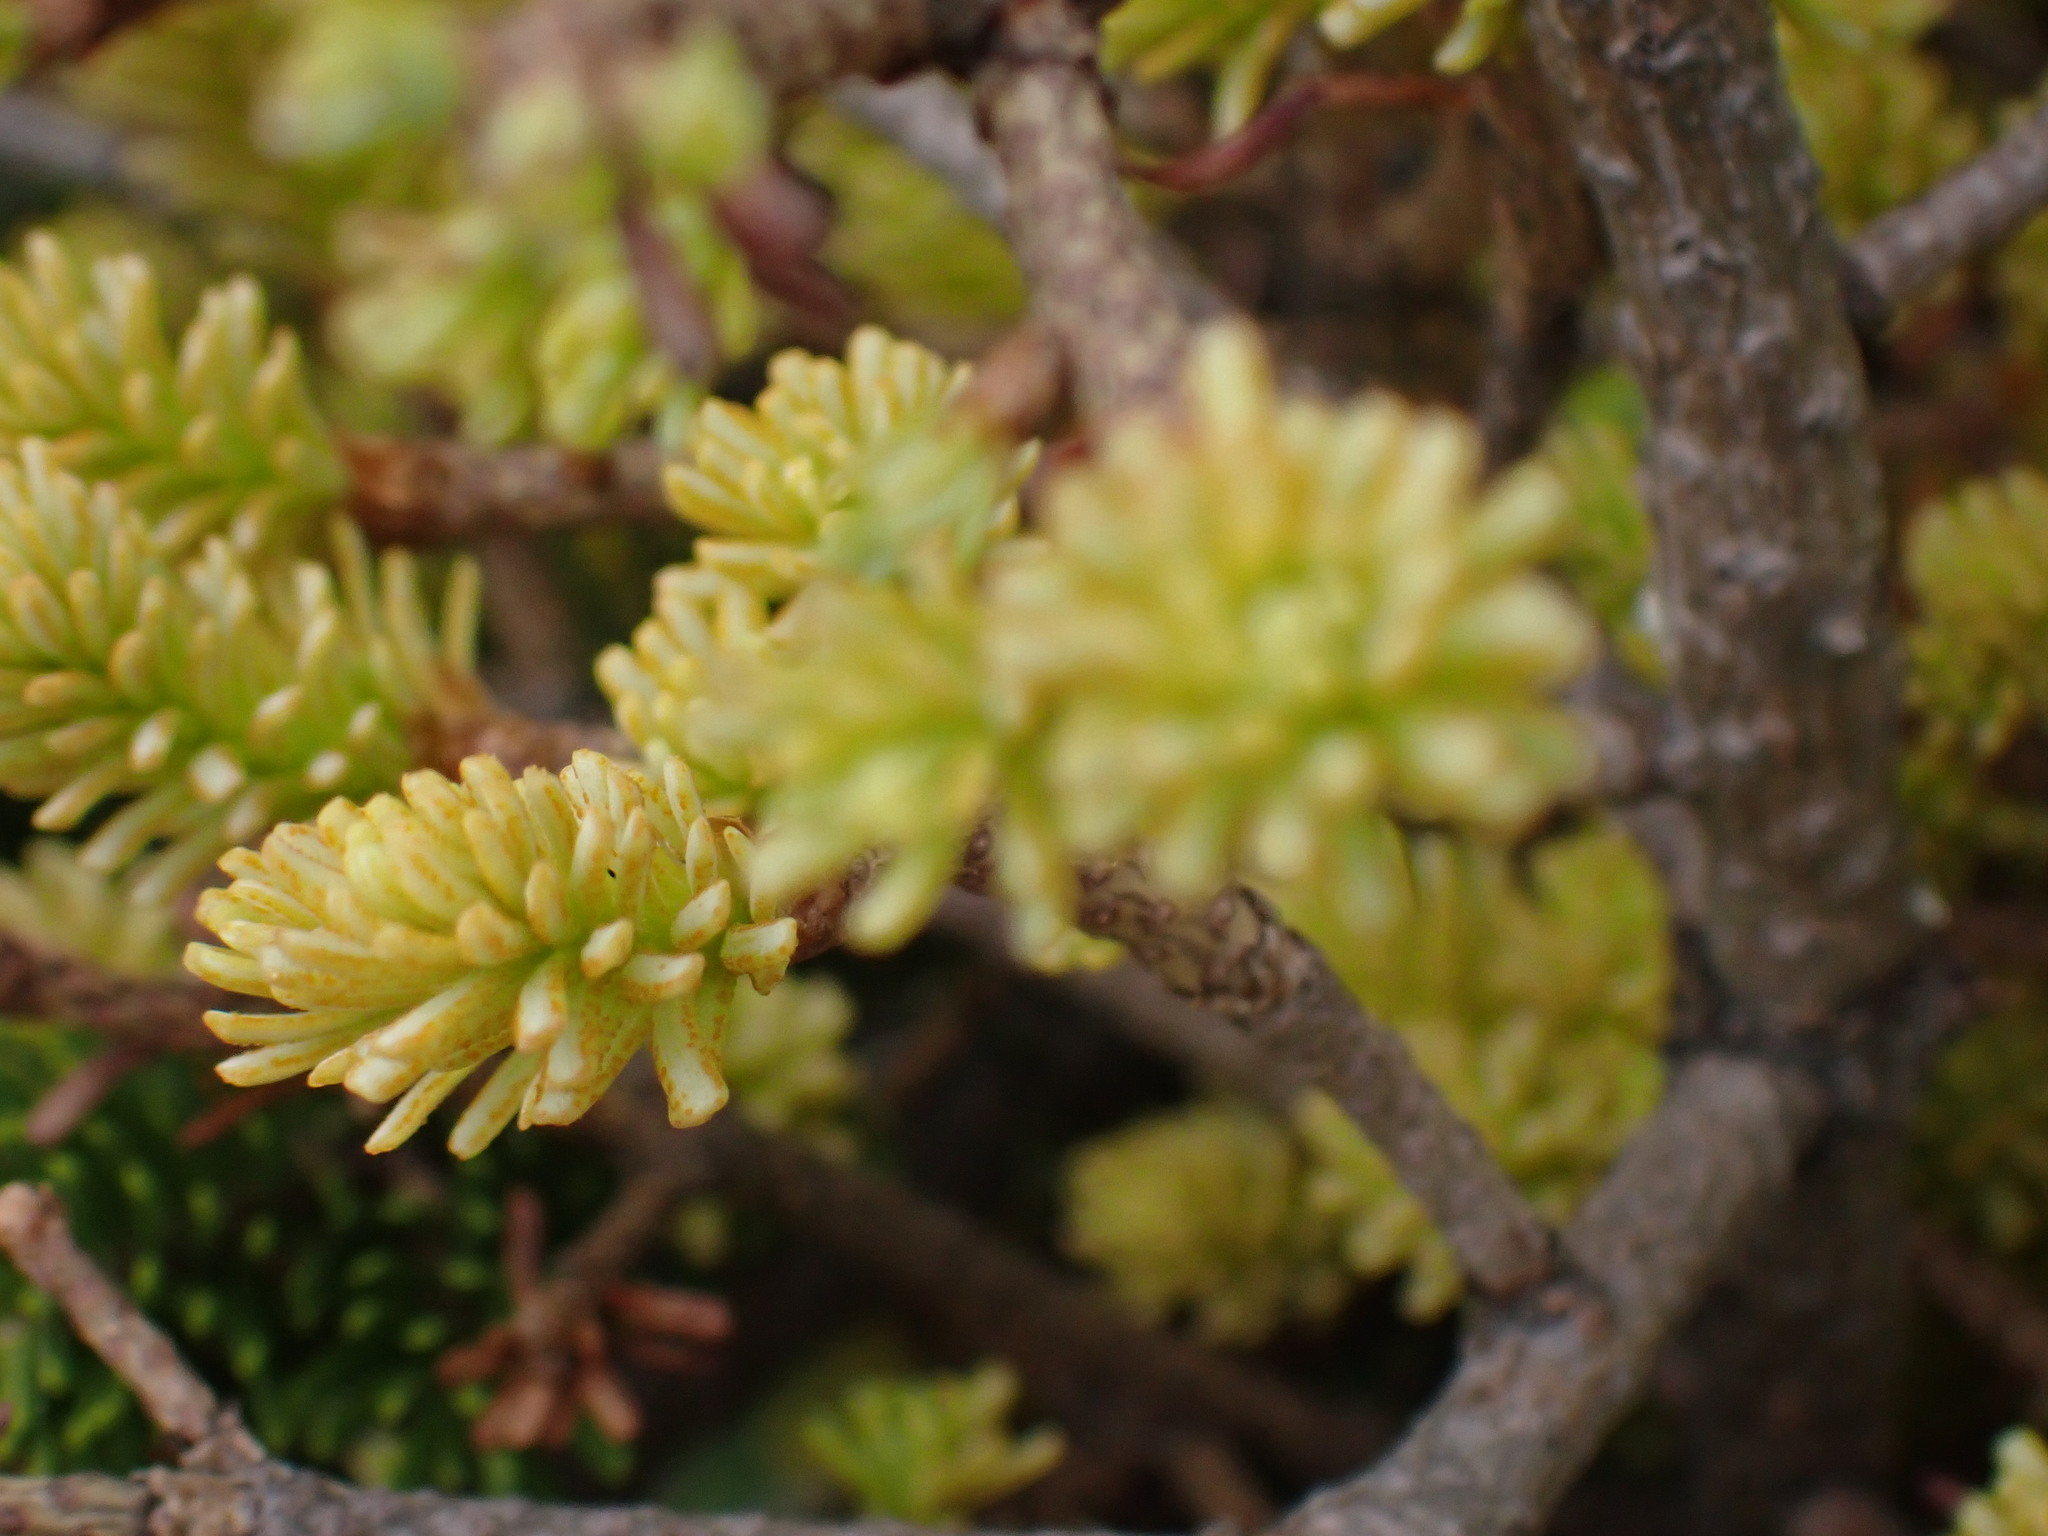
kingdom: Fungi
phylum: Basidiomycota
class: Pucciniomycetes
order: Pucciniales
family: Pucciniastraceae
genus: Melampsorella
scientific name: Melampsorella elatina
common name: Fir broom rust
